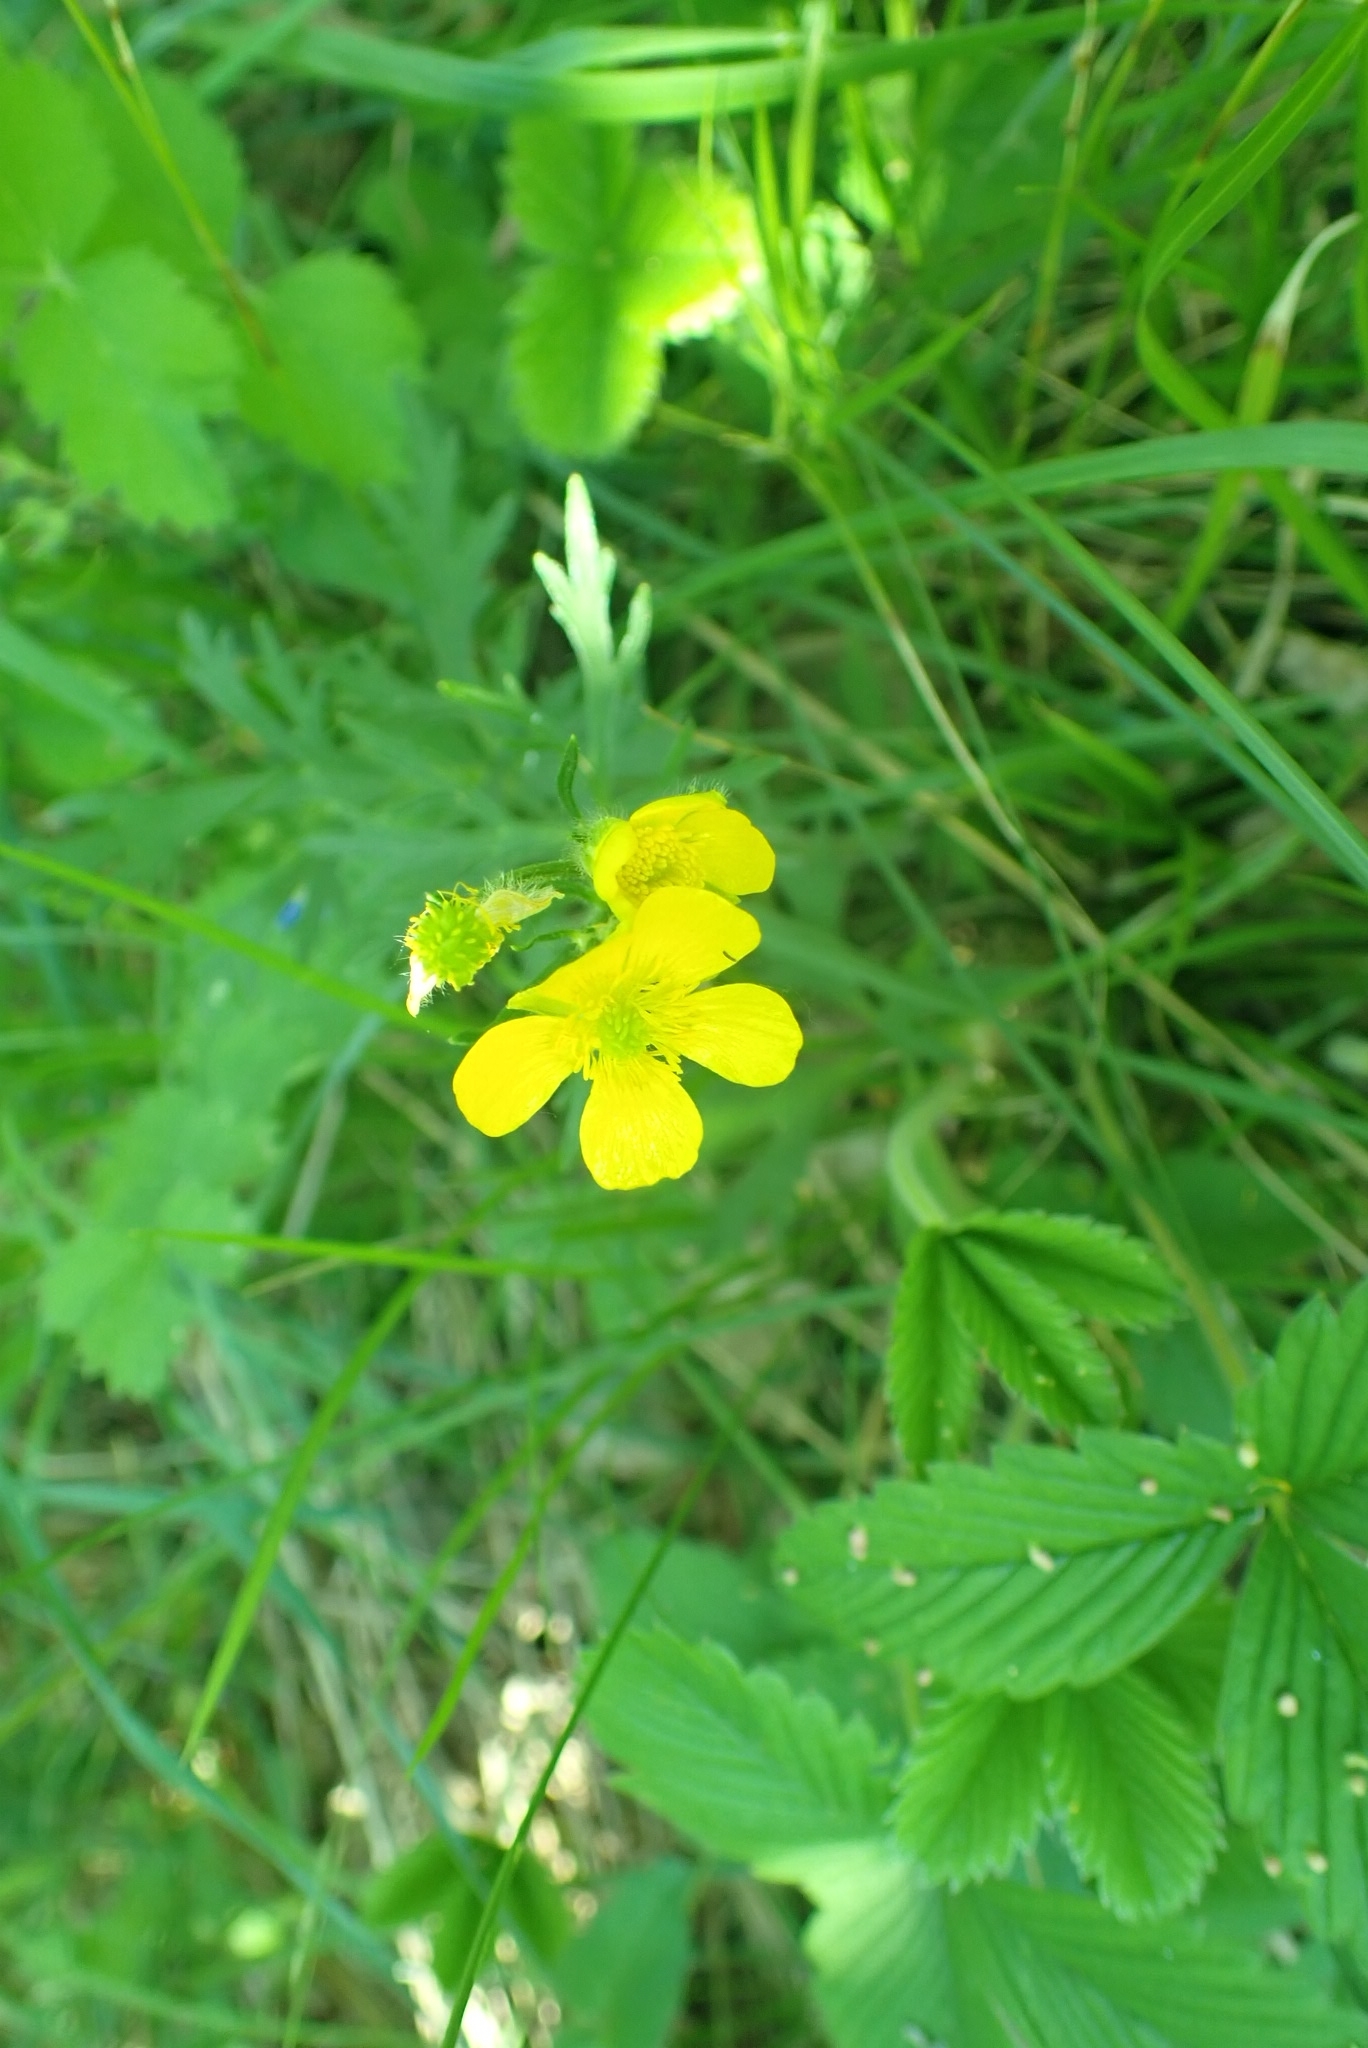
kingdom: Plantae
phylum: Tracheophyta
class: Magnoliopsida
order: Ranunculales
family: Ranunculaceae
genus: Ranunculus
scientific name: Ranunculus polyanthemos
